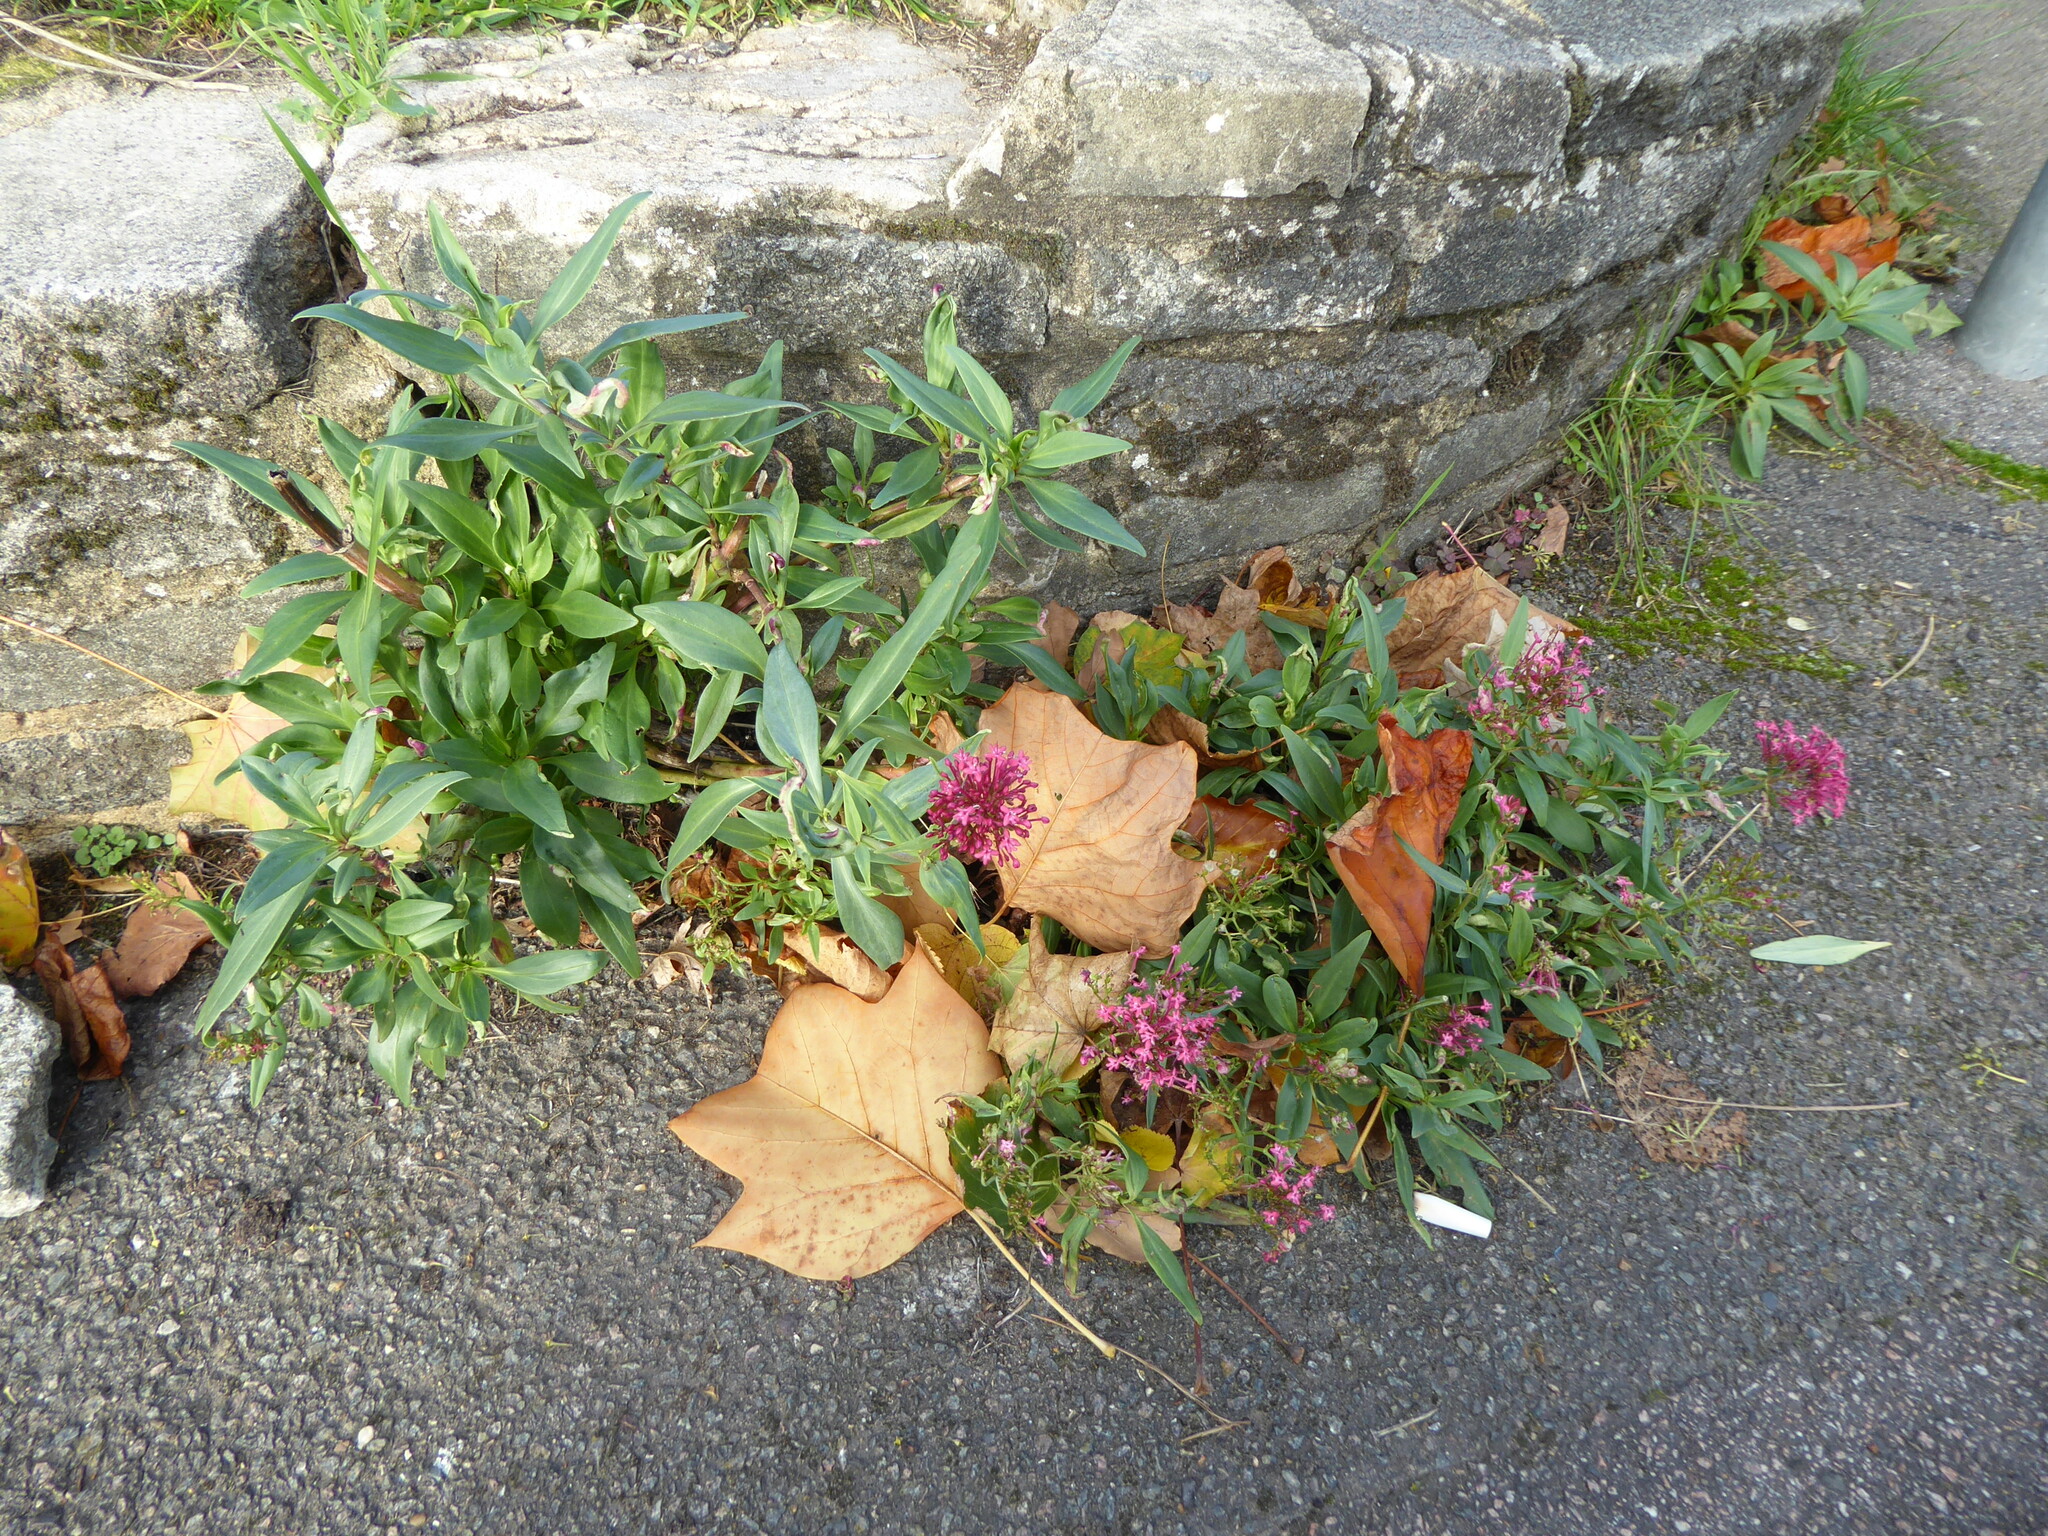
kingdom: Plantae
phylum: Tracheophyta
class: Magnoliopsida
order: Dipsacales
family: Caprifoliaceae
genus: Centranthus
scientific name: Centranthus ruber
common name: Red valerian
